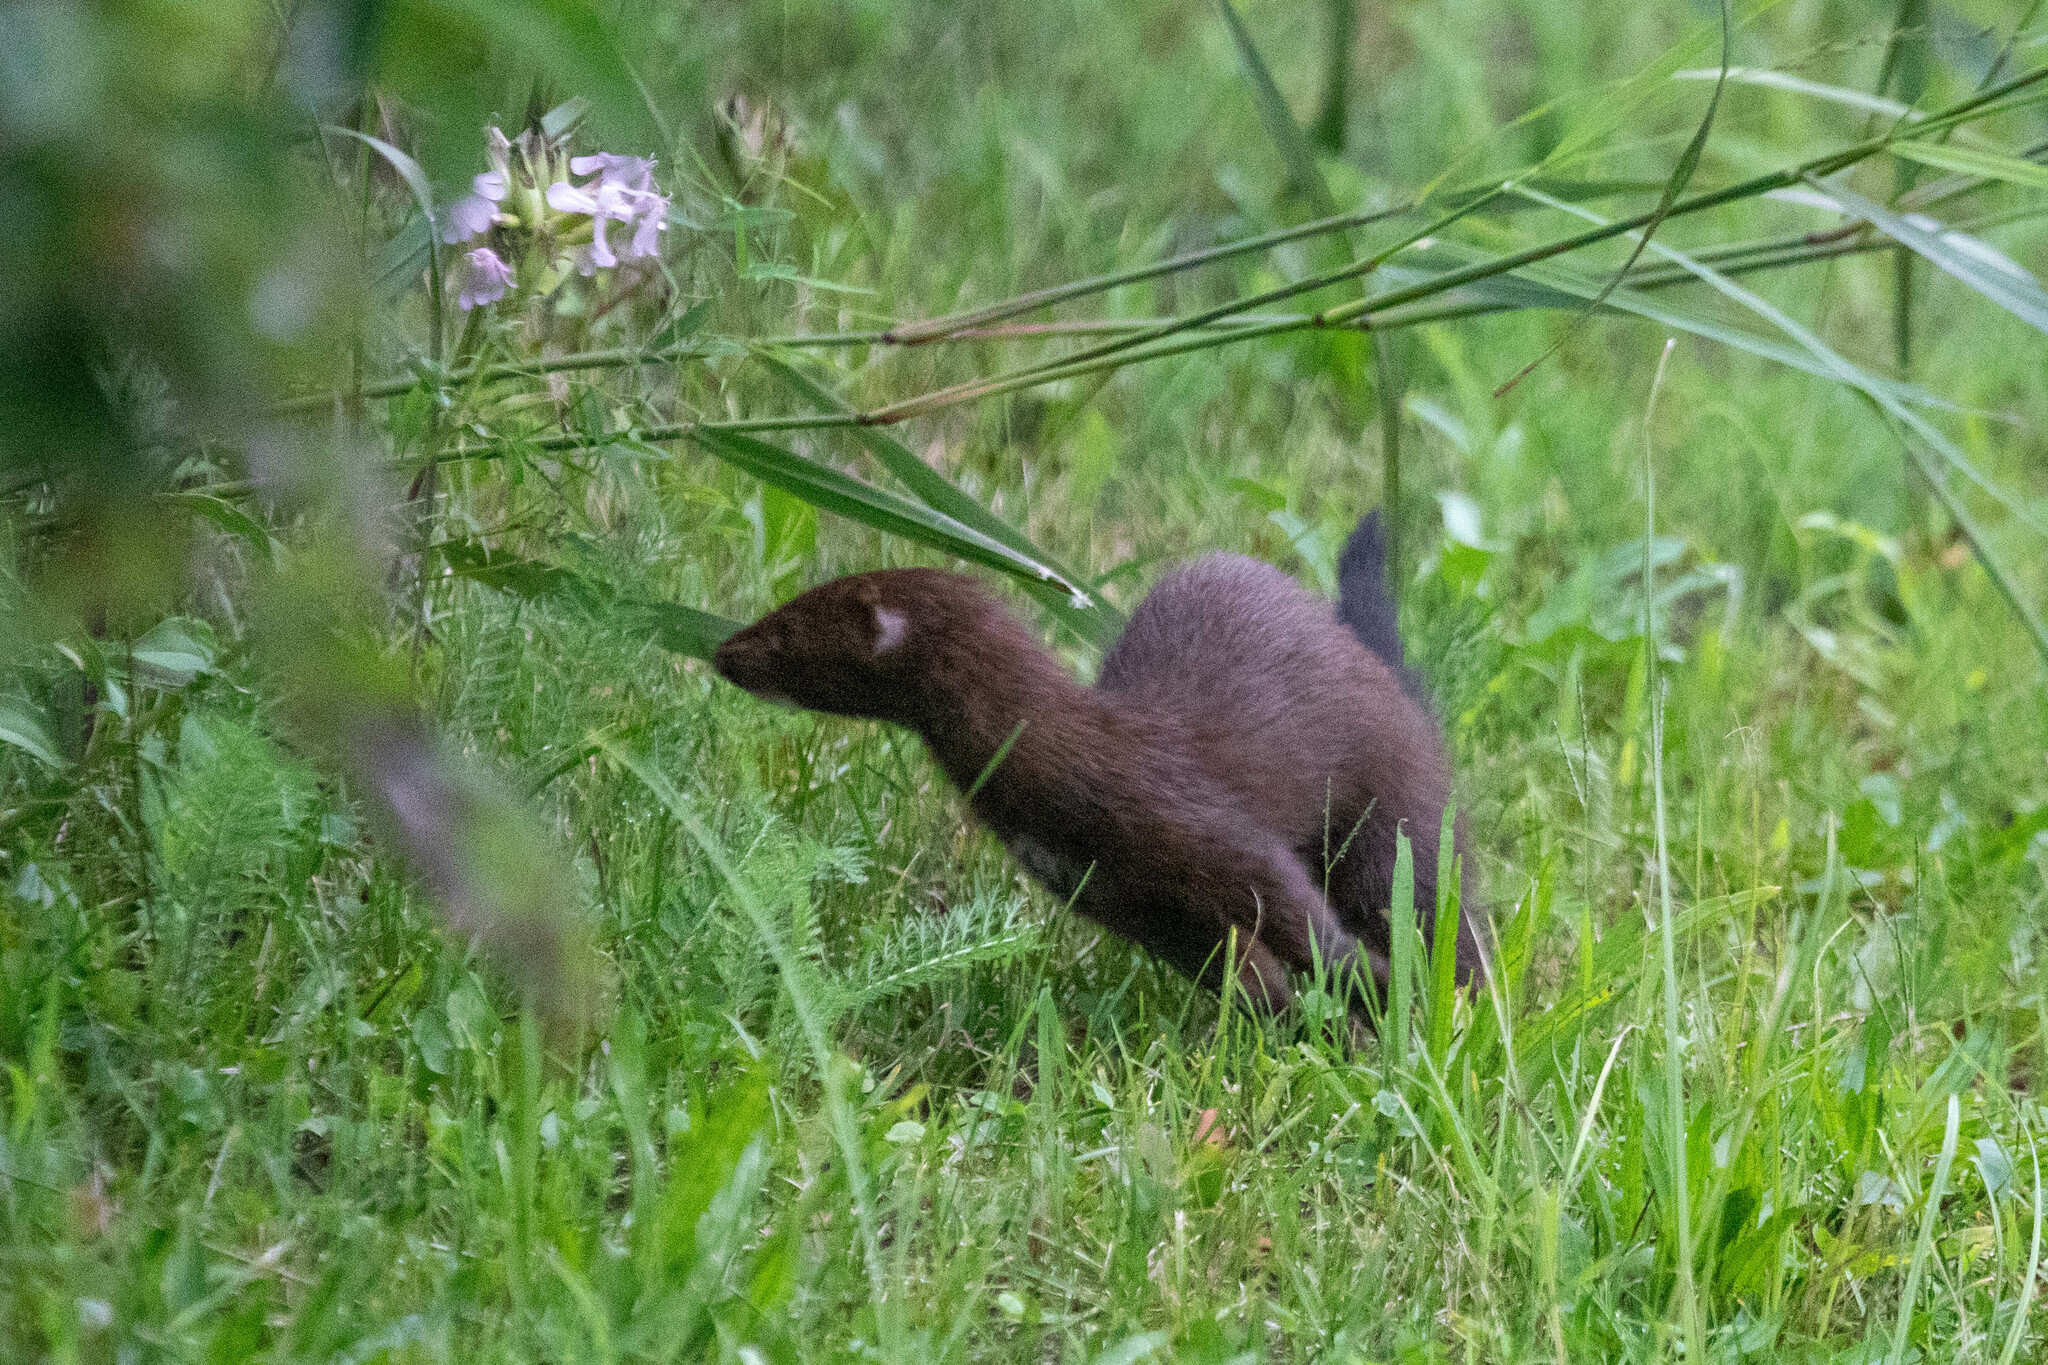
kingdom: Animalia
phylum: Chordata
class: Mammalia
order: Carnivora
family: Mustelidae
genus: Mustela
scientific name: Mustela
